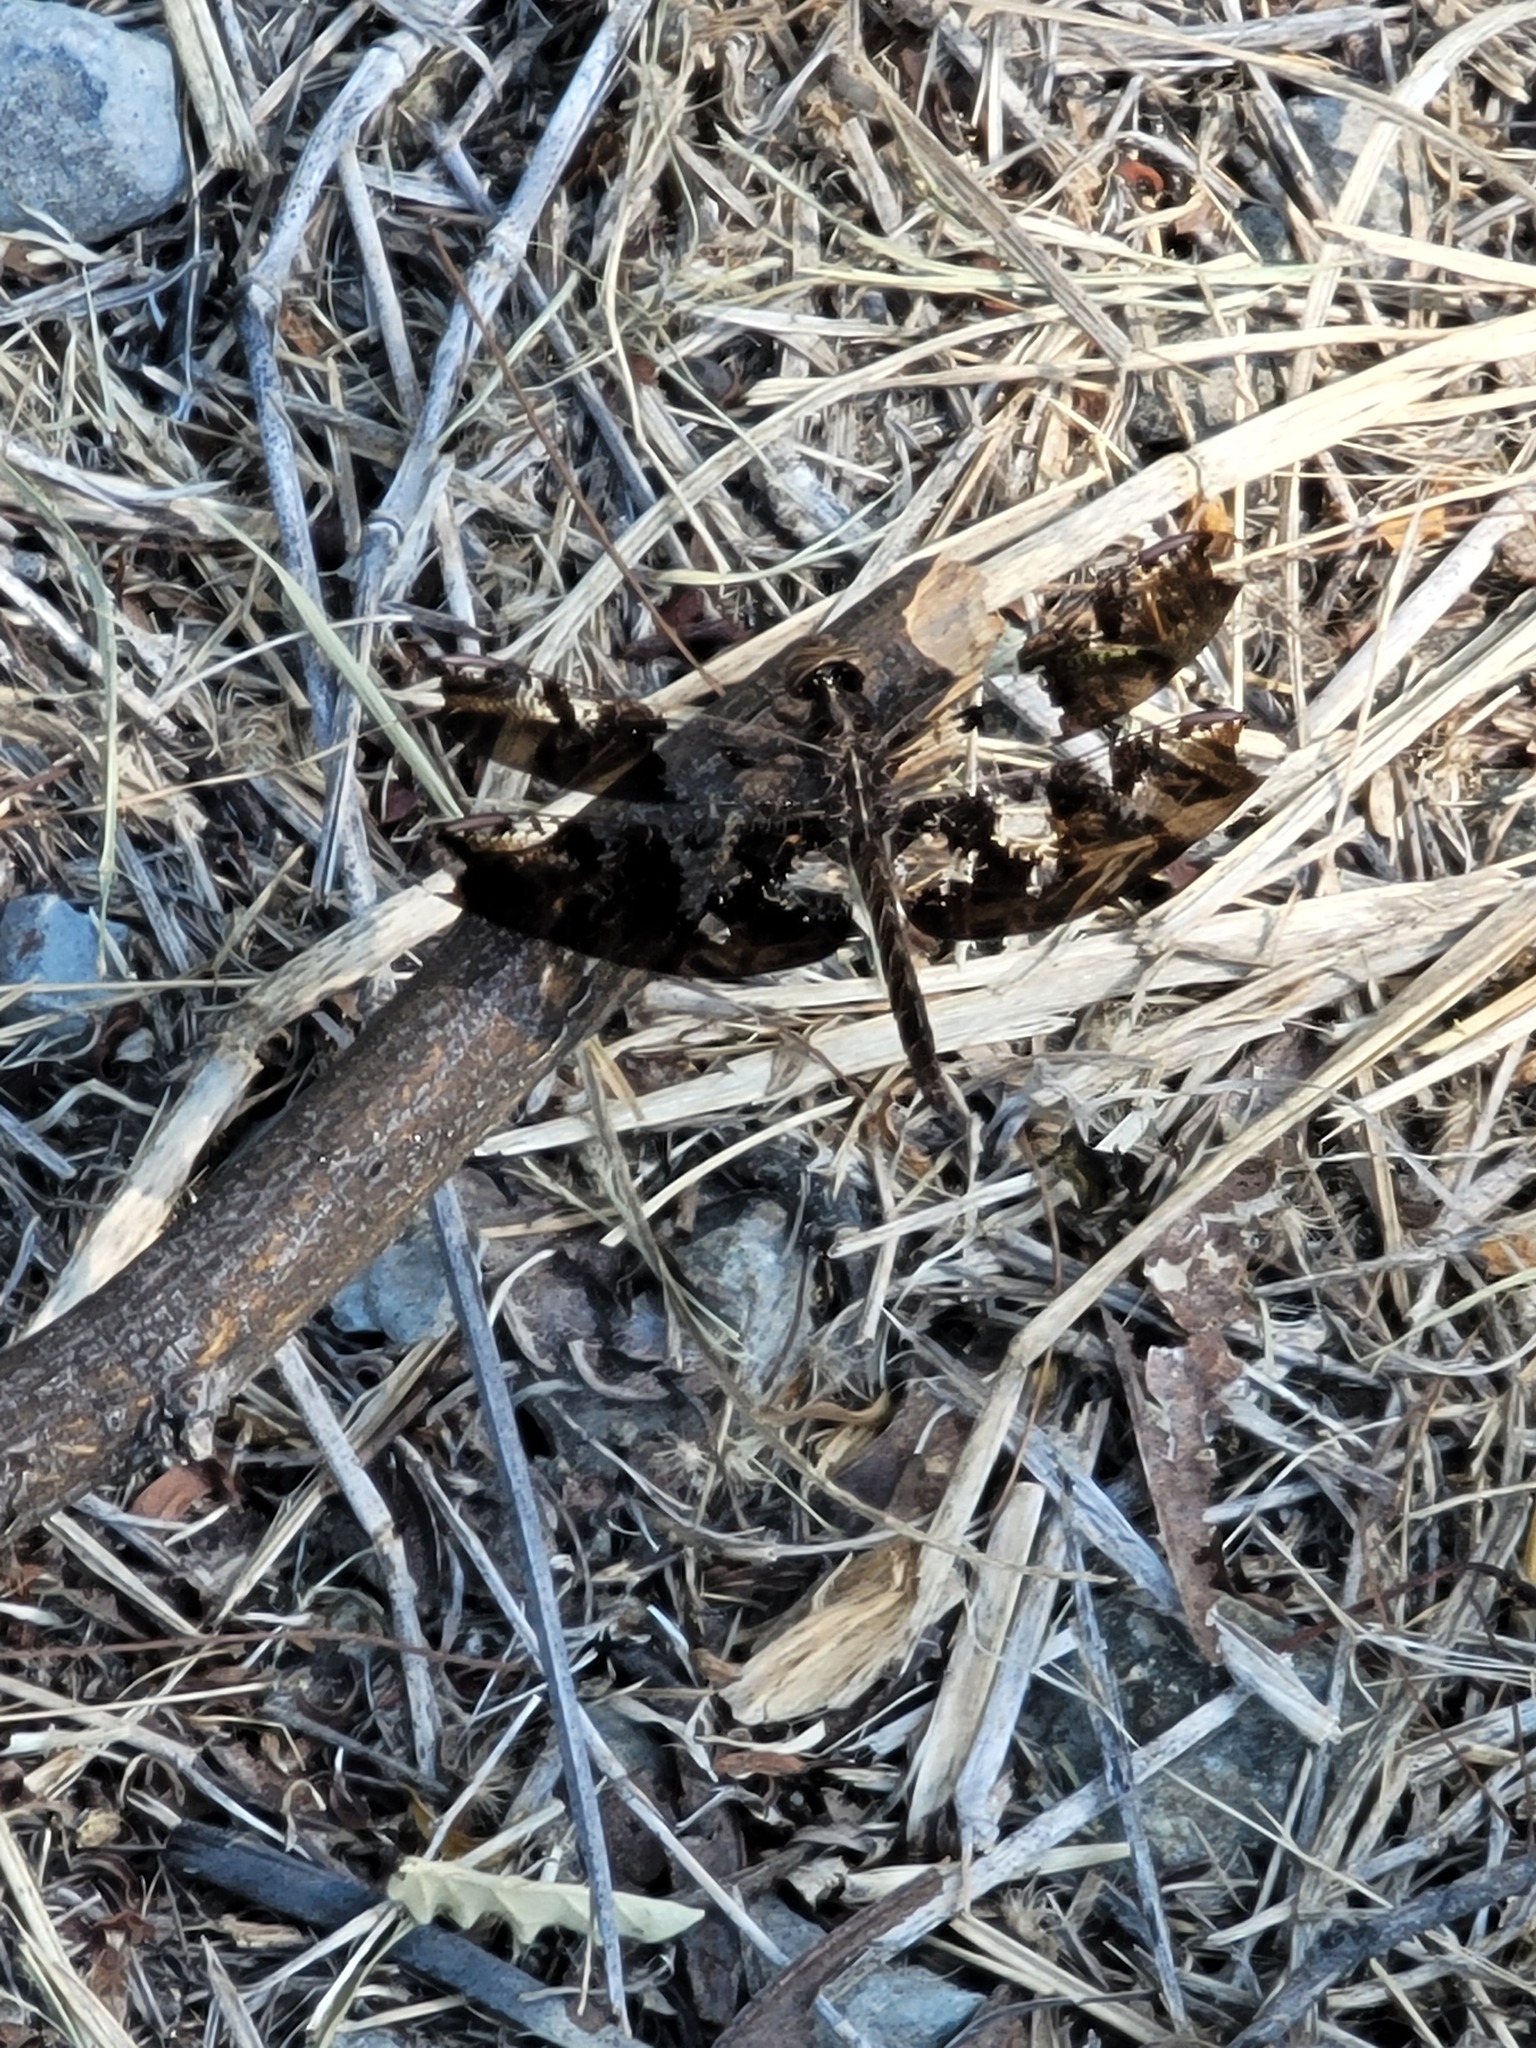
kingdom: Animalia
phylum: Arthropoda
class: Insecta
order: Odonata
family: Libellulidae
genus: Pseudoleon
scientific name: Pseudoleon superbus
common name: Filigree skimmer
